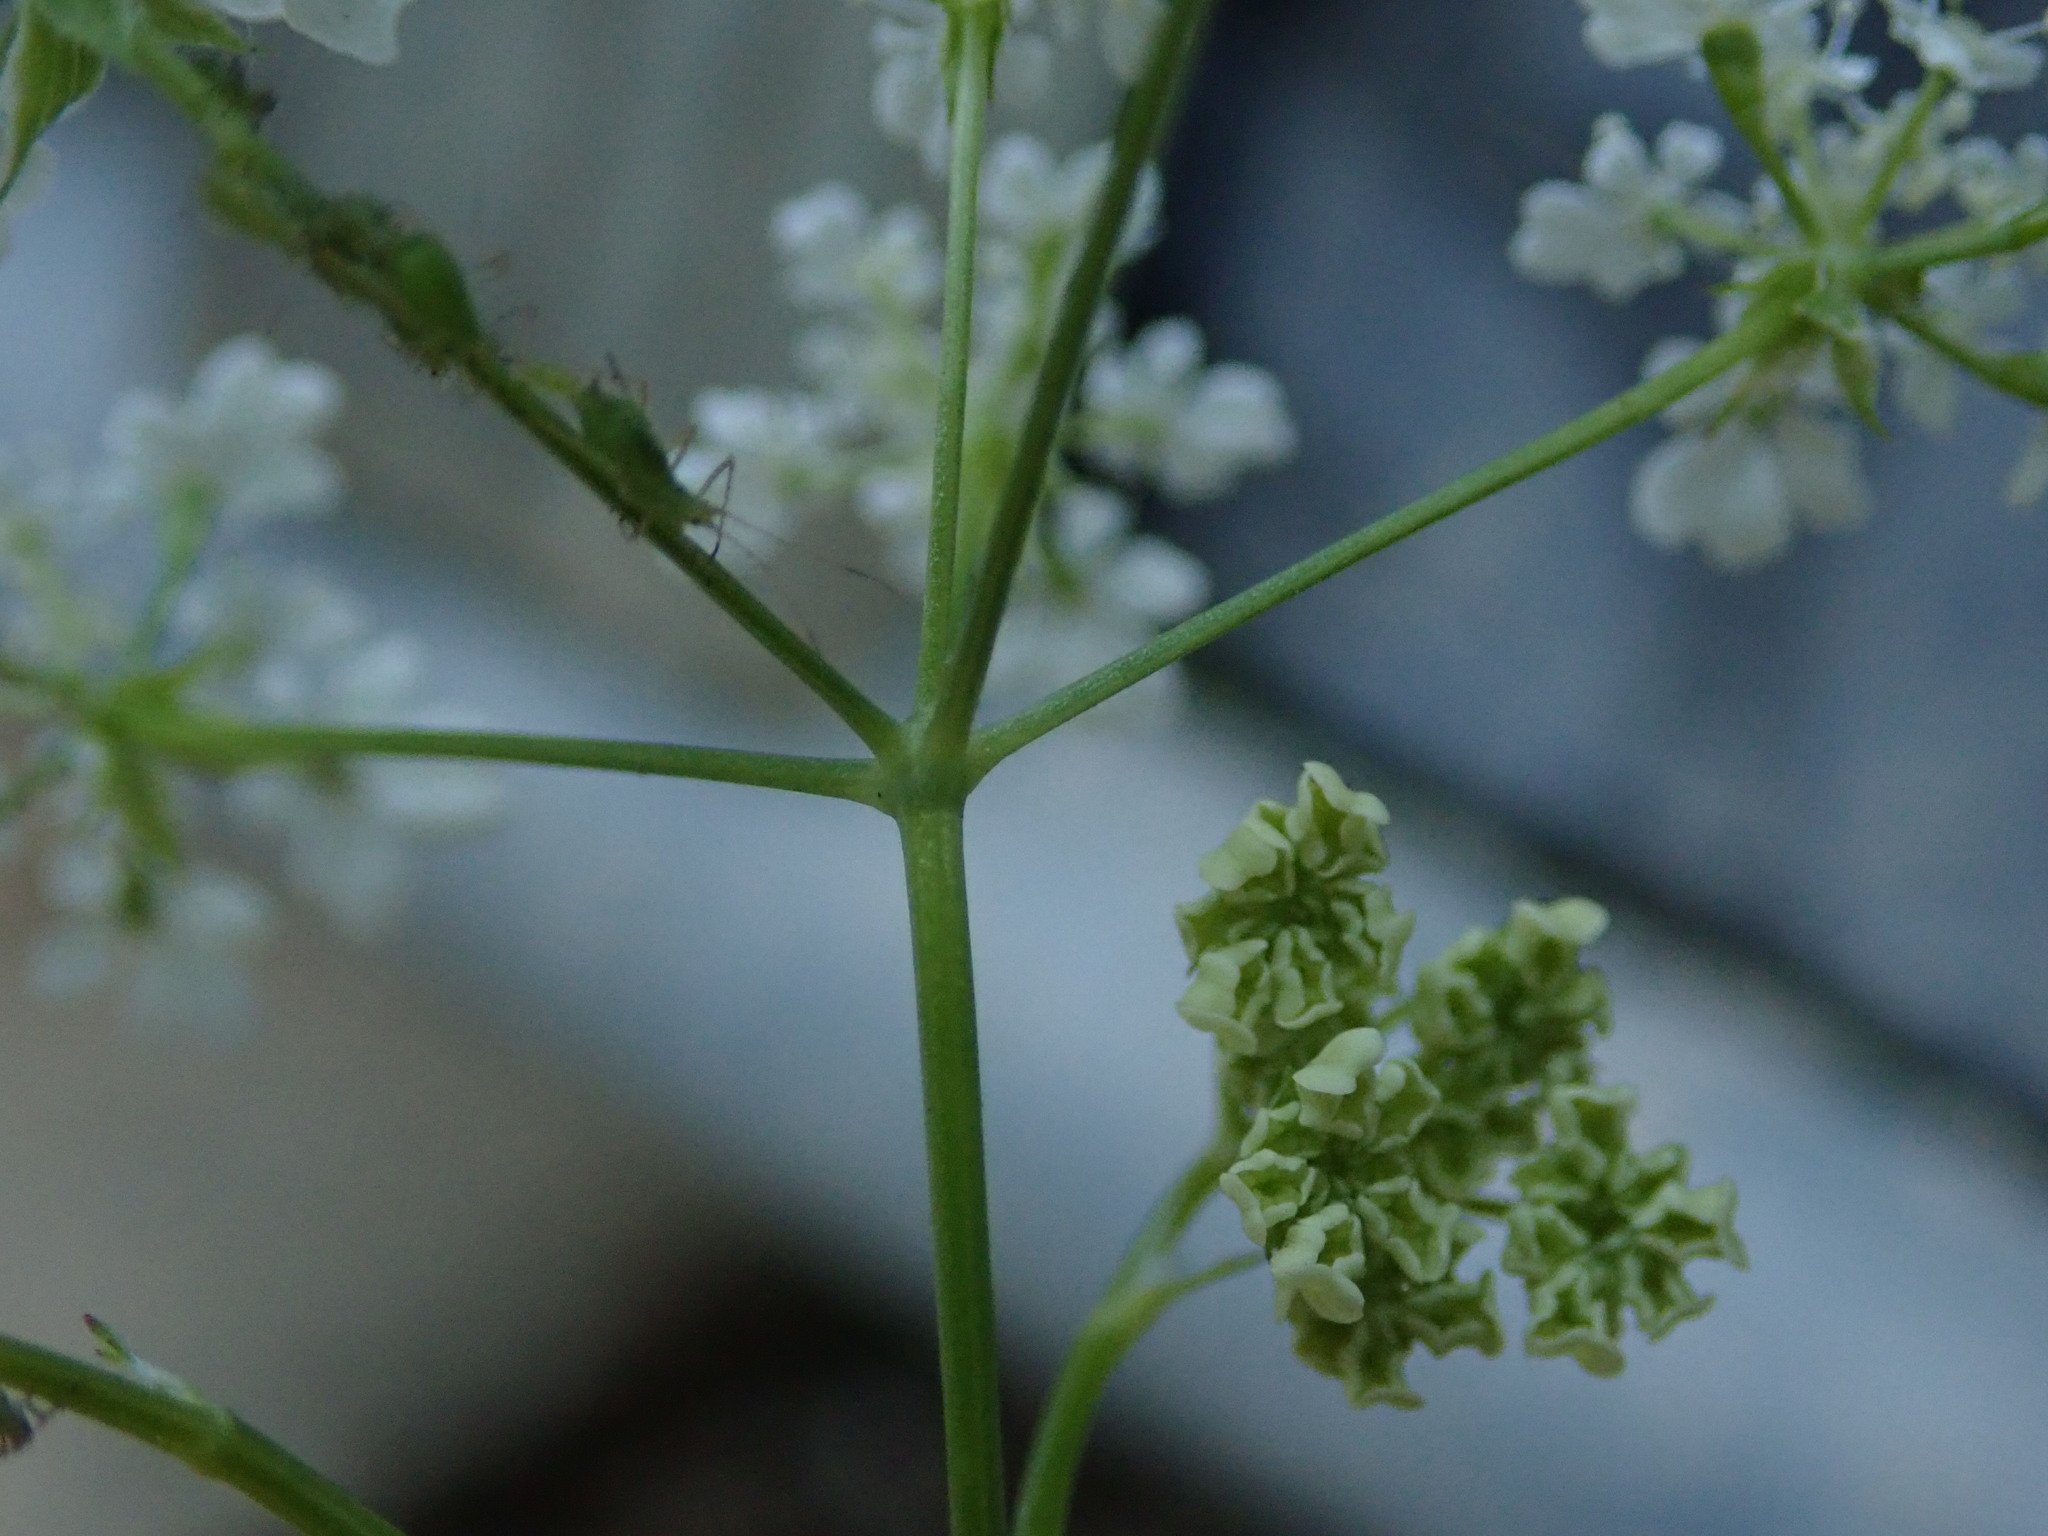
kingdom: Plantae
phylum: Tracheophyta
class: Magnoliopsida
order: Apiales
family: Apiaceae
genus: Anthriscus
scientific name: Anthriscus sylvestris
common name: Cow parsley
